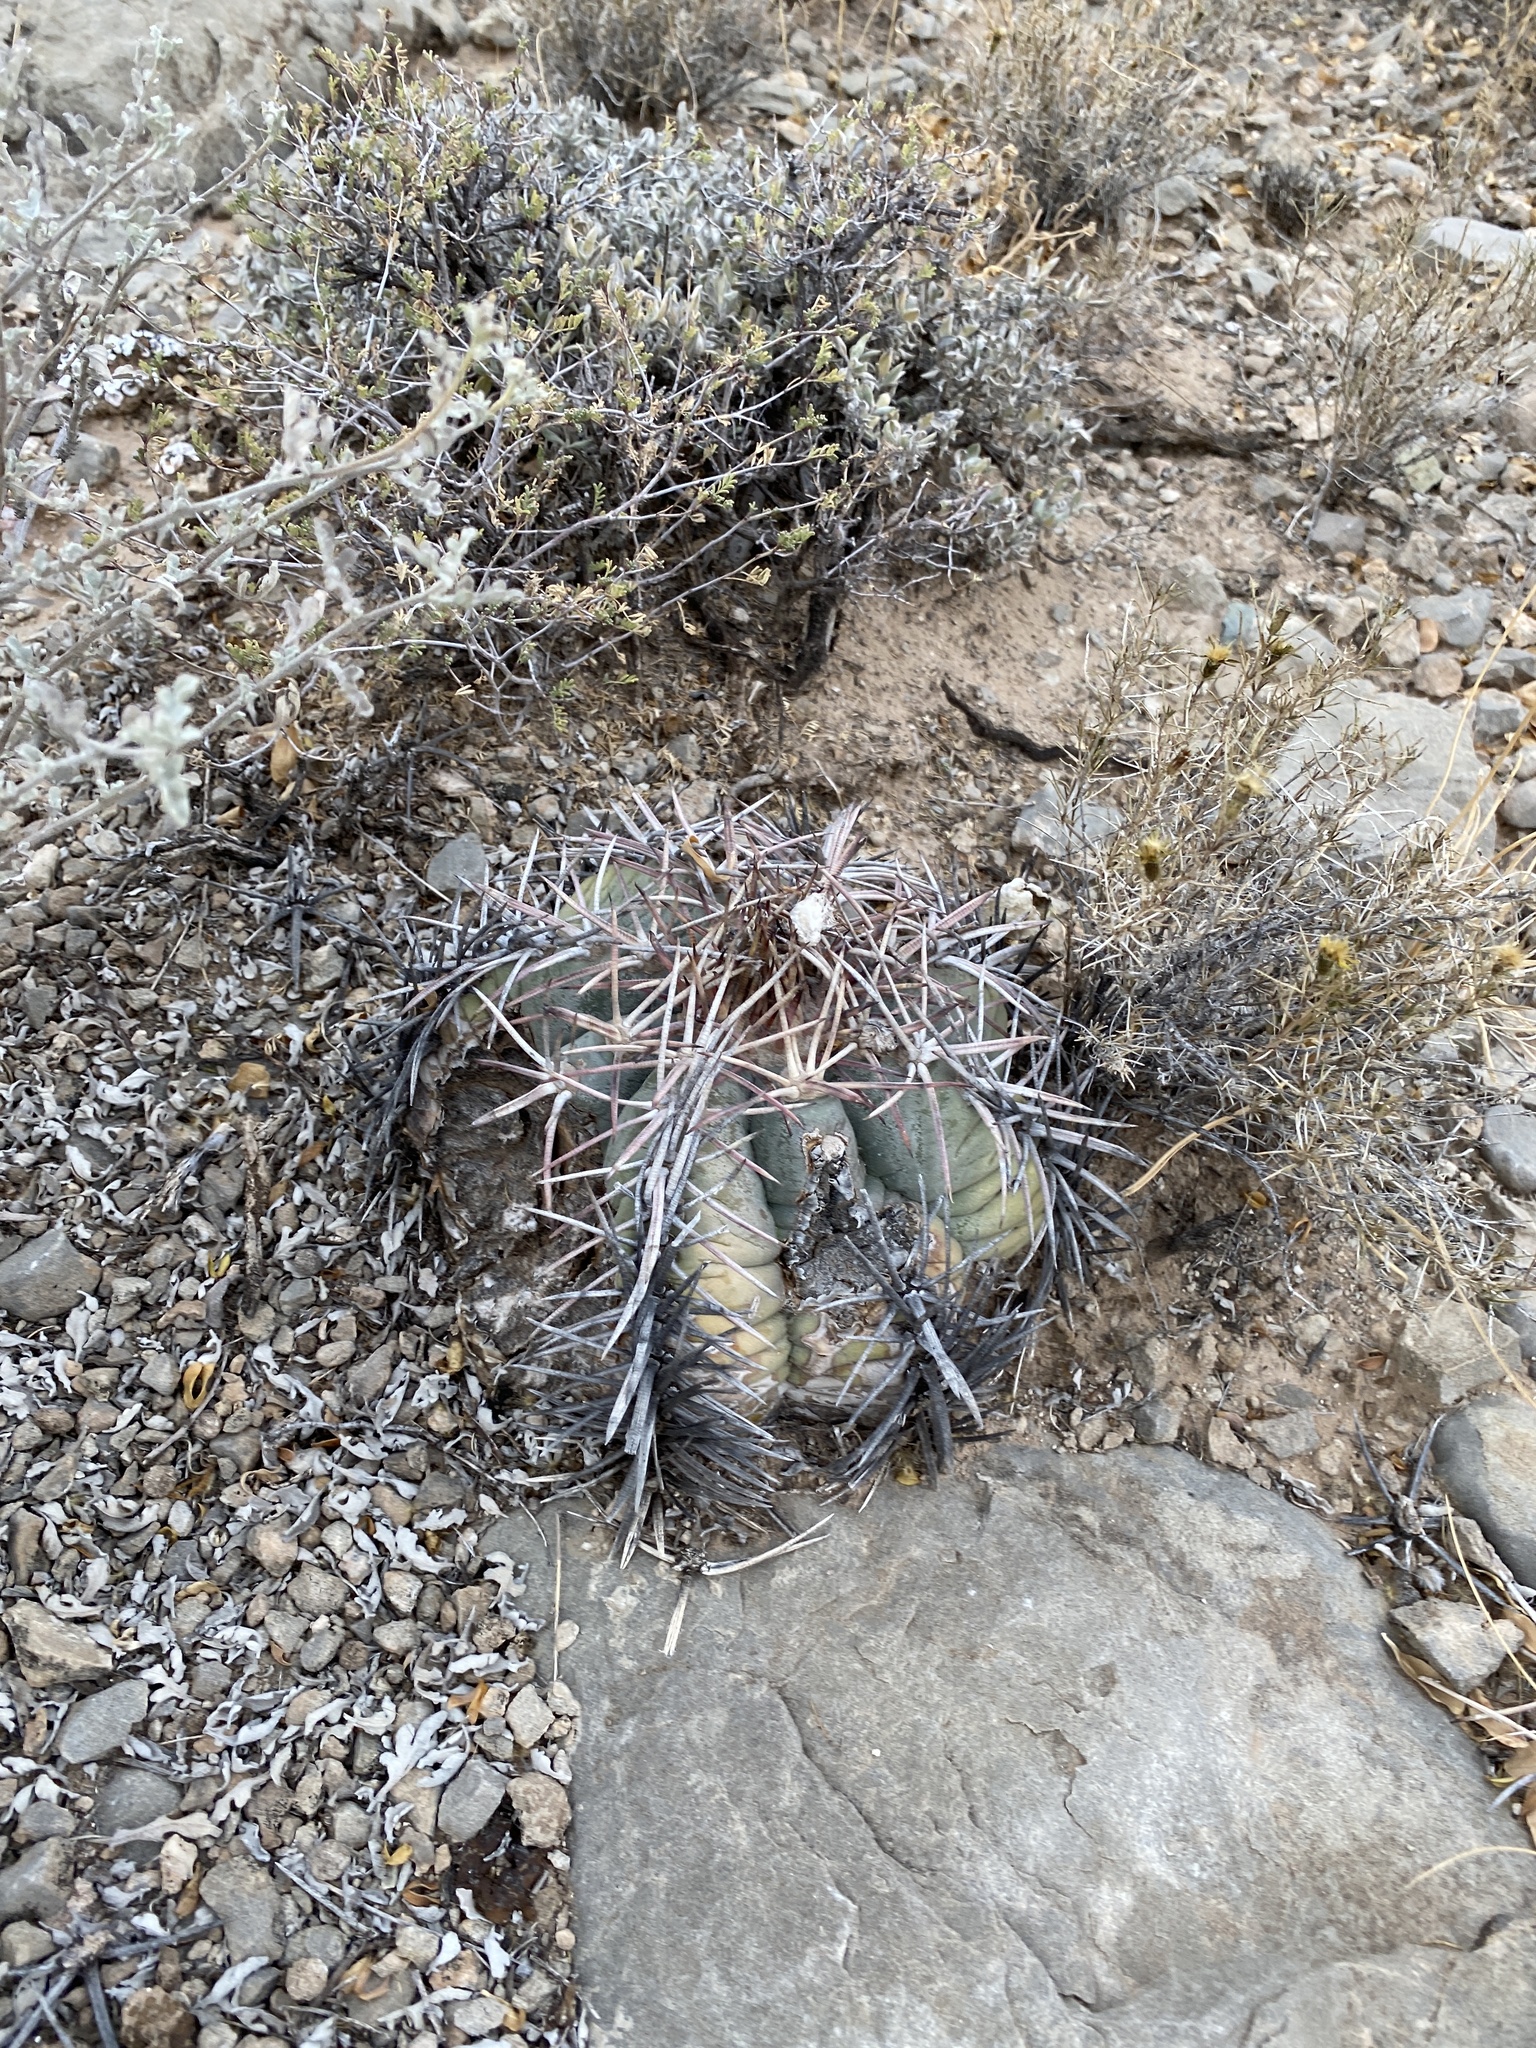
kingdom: Plantae
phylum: Tracheophyta
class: Magnoliopsida
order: Caryophyllales
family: Cactaceae
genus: Echinocactus
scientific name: Echinocactus horizonthalonius
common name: Devilshead
